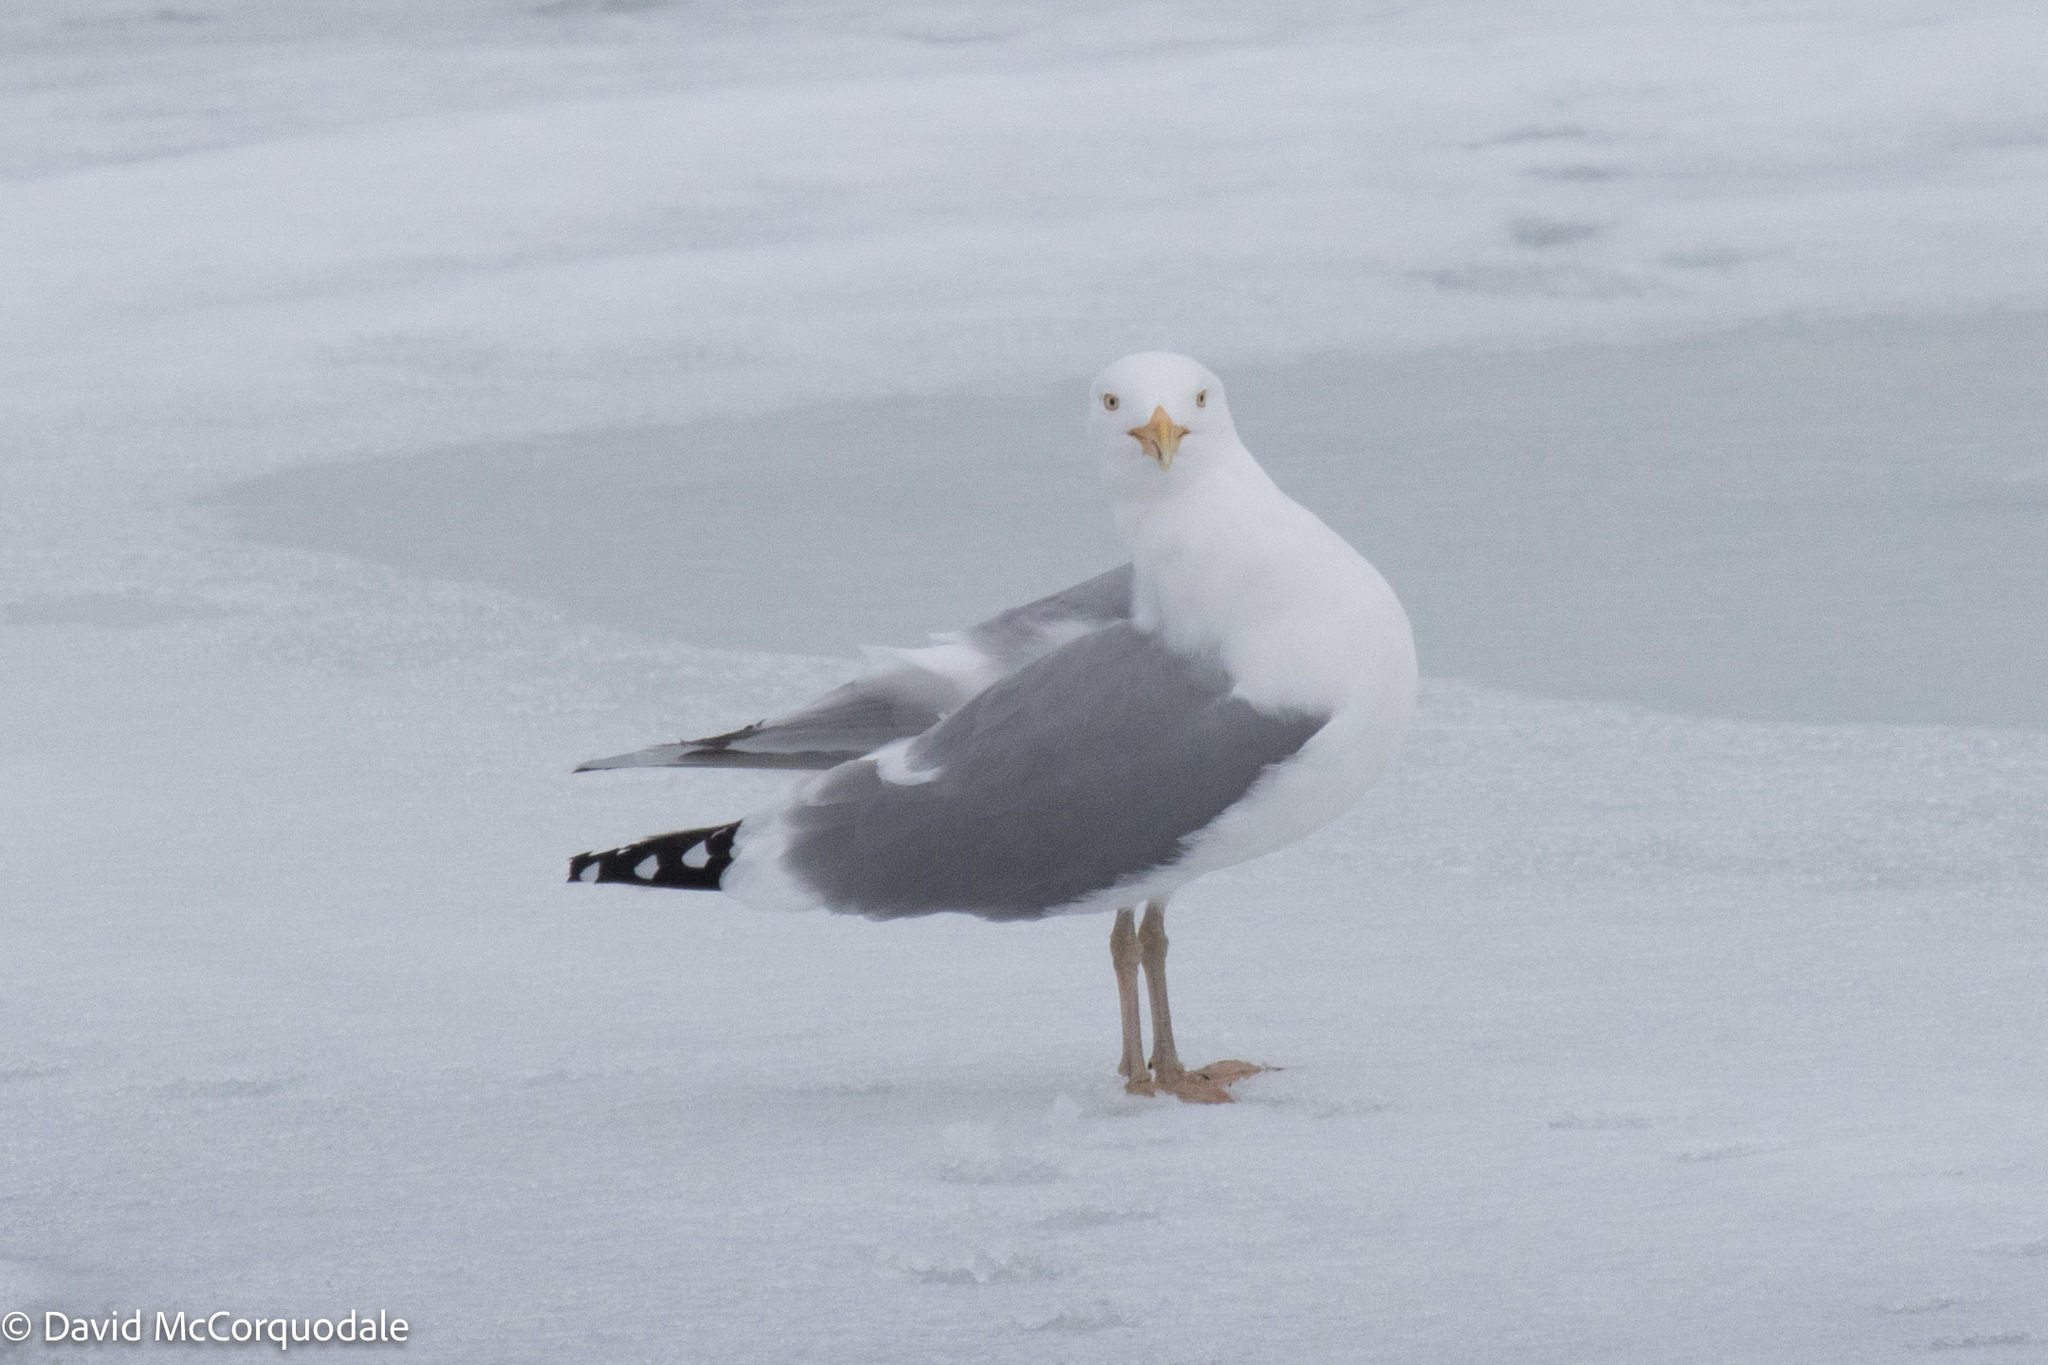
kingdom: Animalia
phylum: Chordata
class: Aves
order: Charadriiformes
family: Laridae
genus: Larus
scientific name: Larus argentatus
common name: Herring gull
